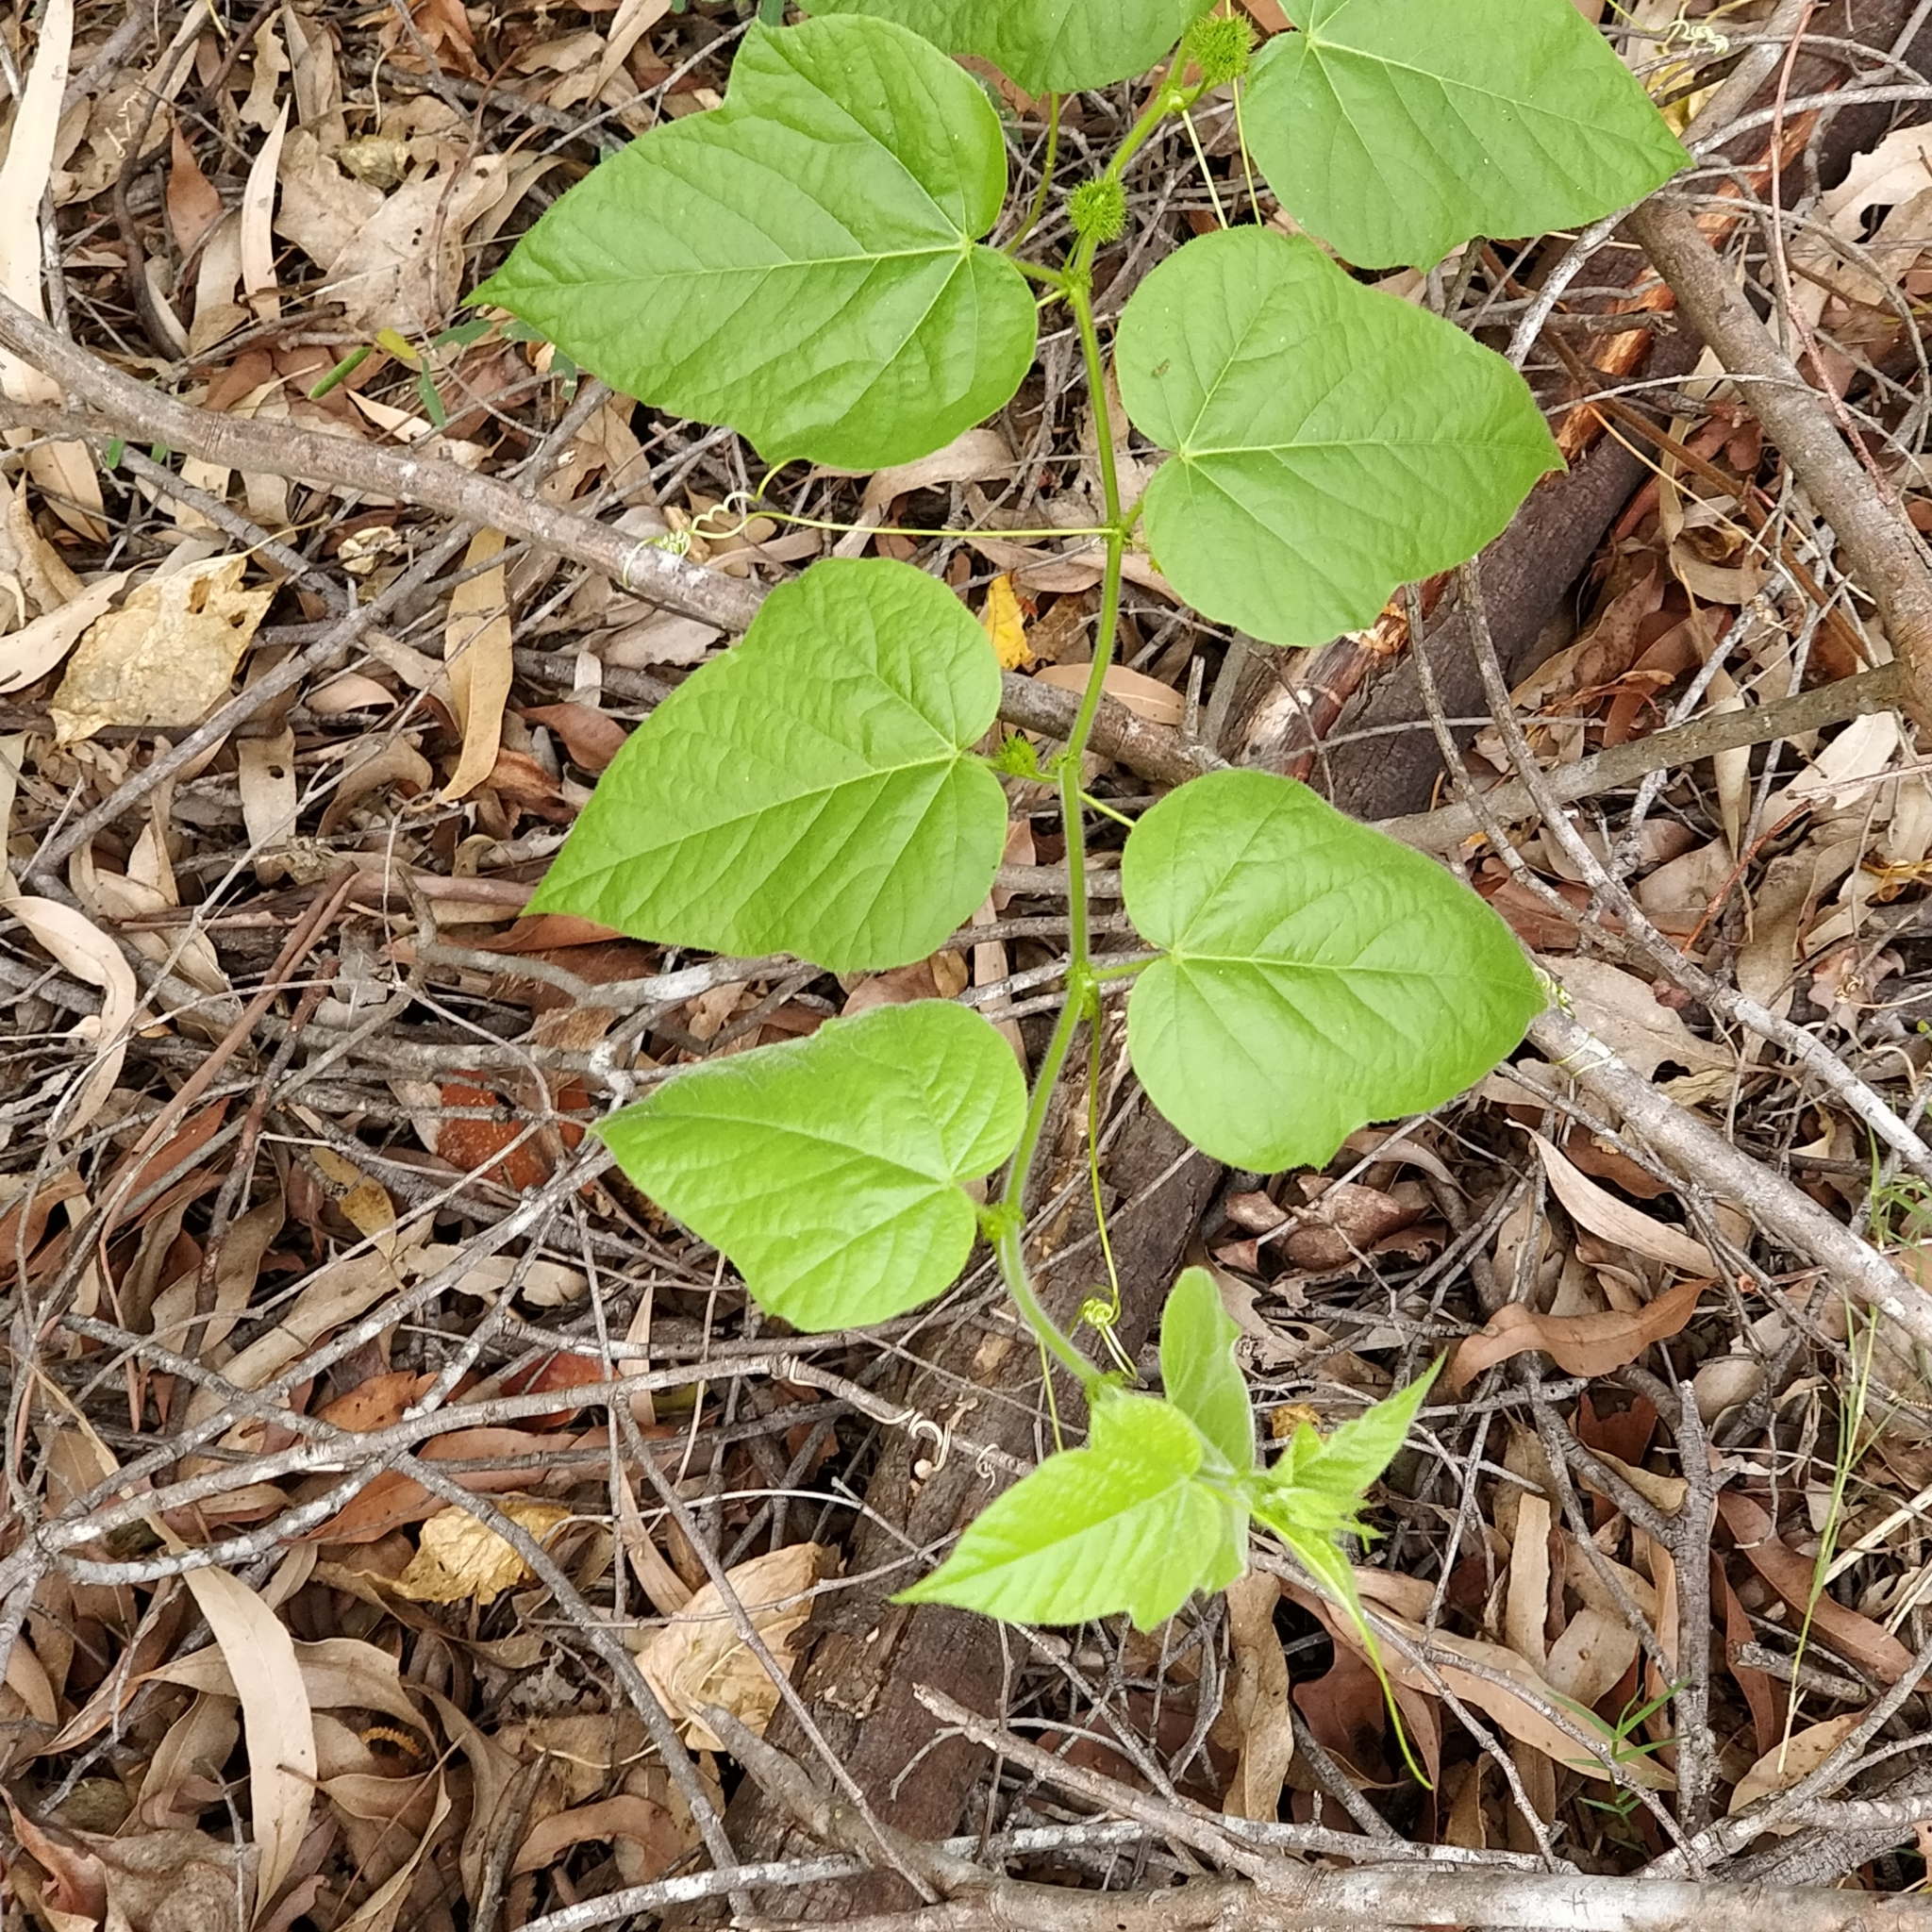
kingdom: Plantae
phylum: Tracheophyta
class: Magnoliopsida
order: Malpighiales
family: Passifloraceae
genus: Passiflora
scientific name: Passiflora foetida
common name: Fetid passionflower
